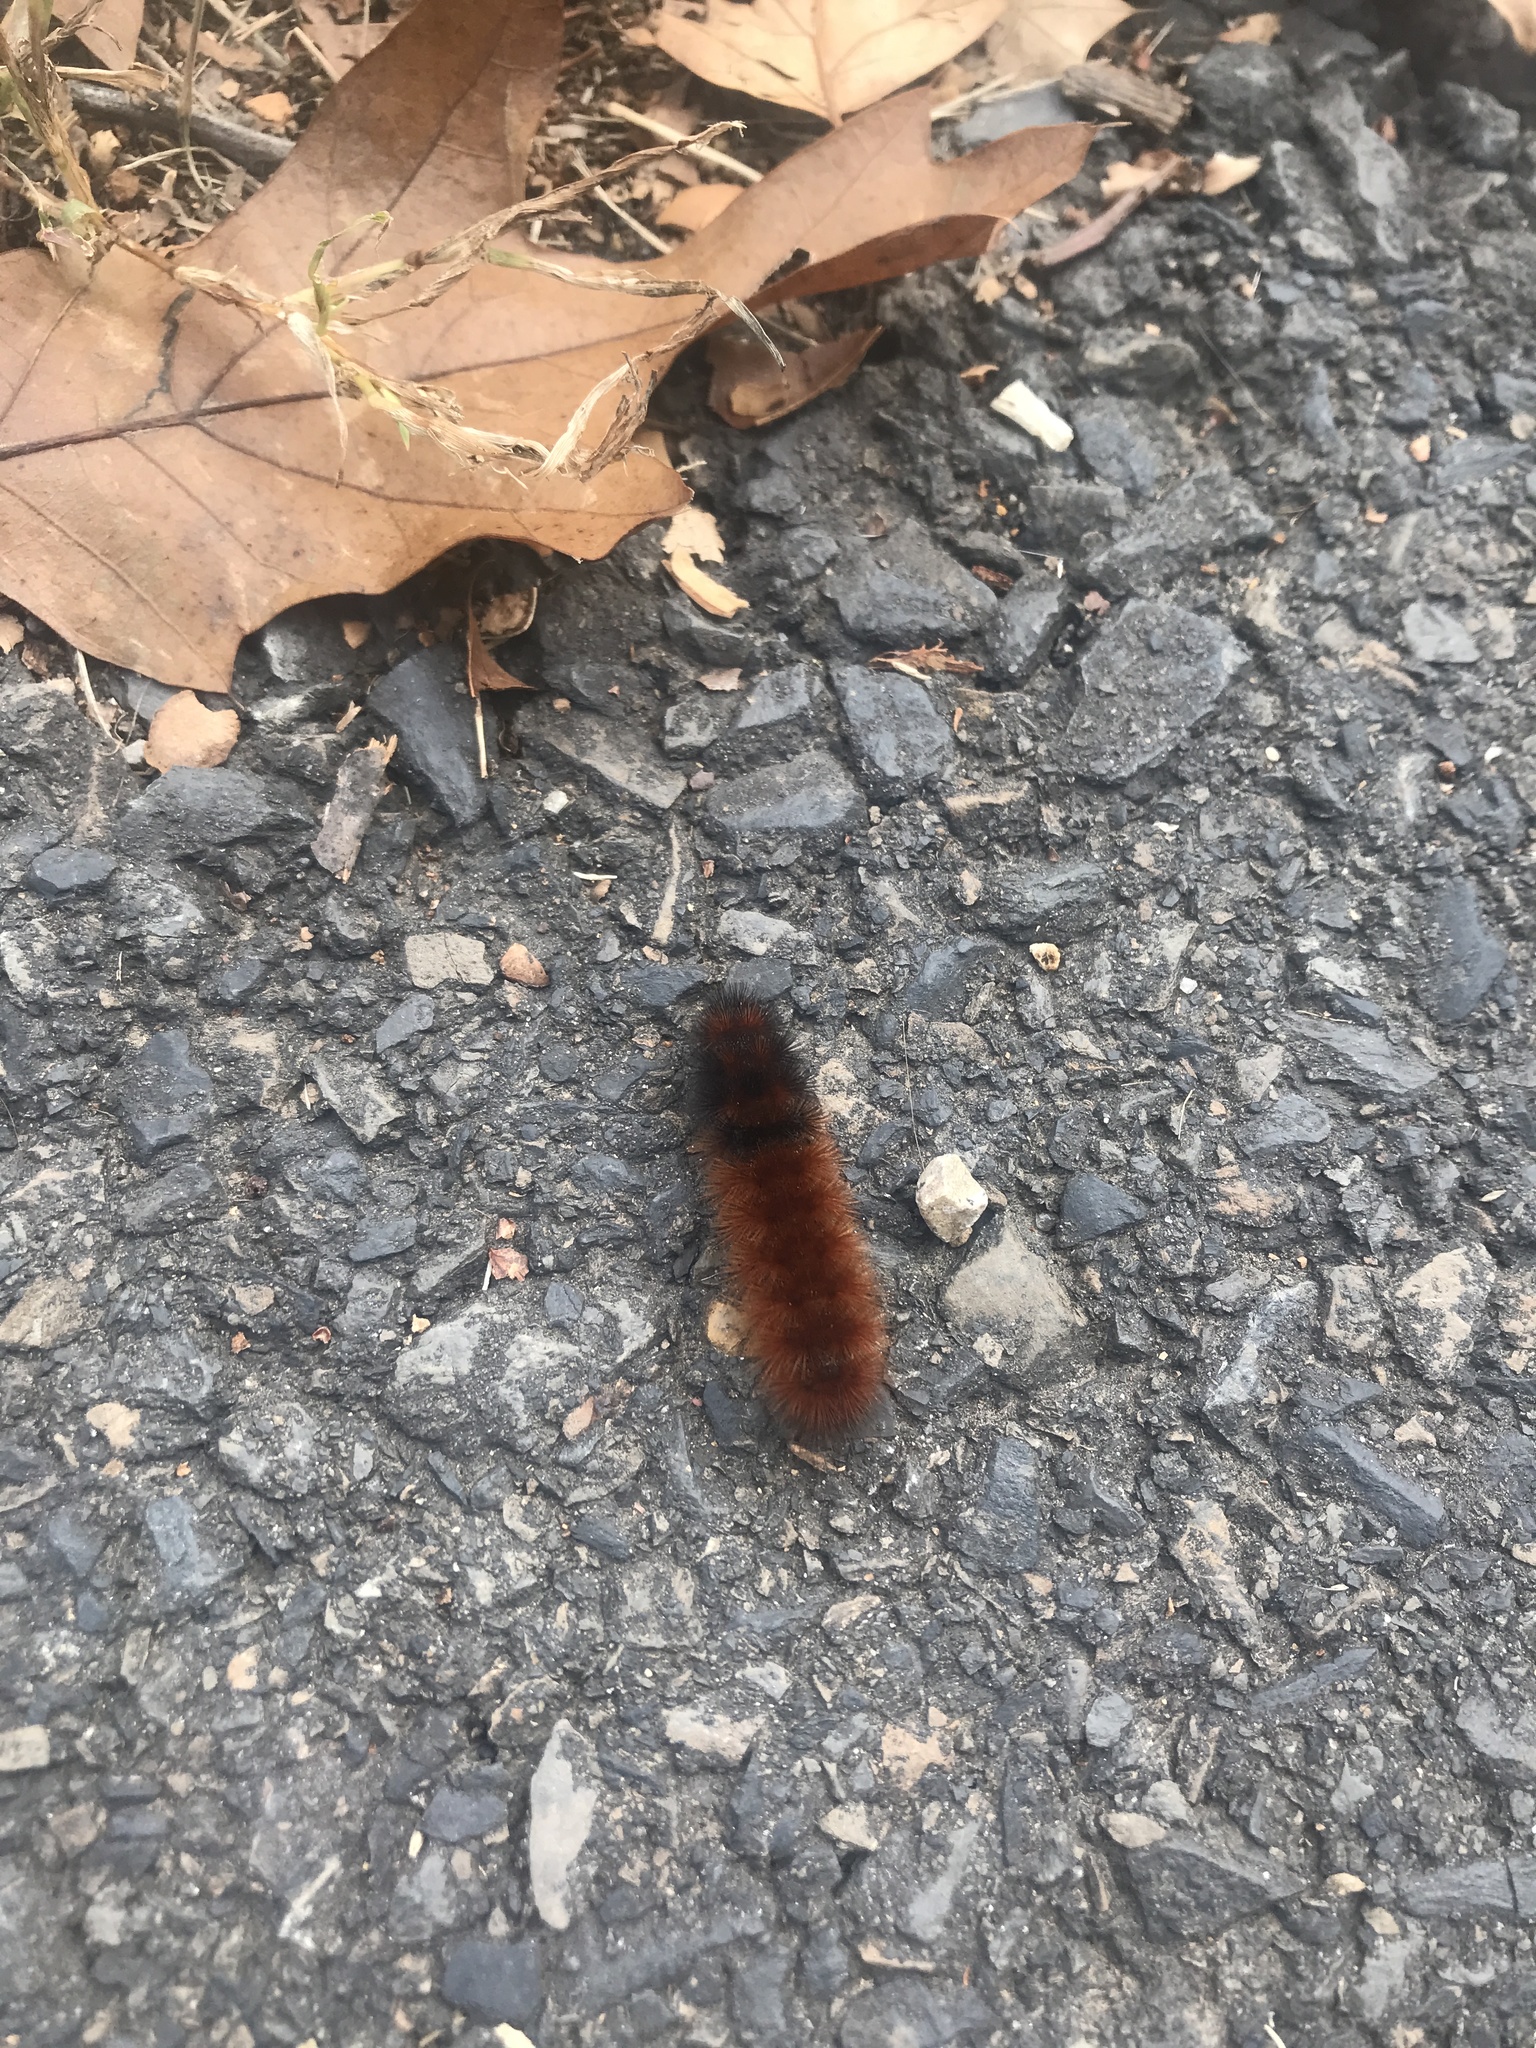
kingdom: Animalia
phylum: Arthropoda
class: Insecta
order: Lepidoptera
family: Erebidae
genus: Pyrrharctia
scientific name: Pyrrharctia isabella
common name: Isabella tiger moth
